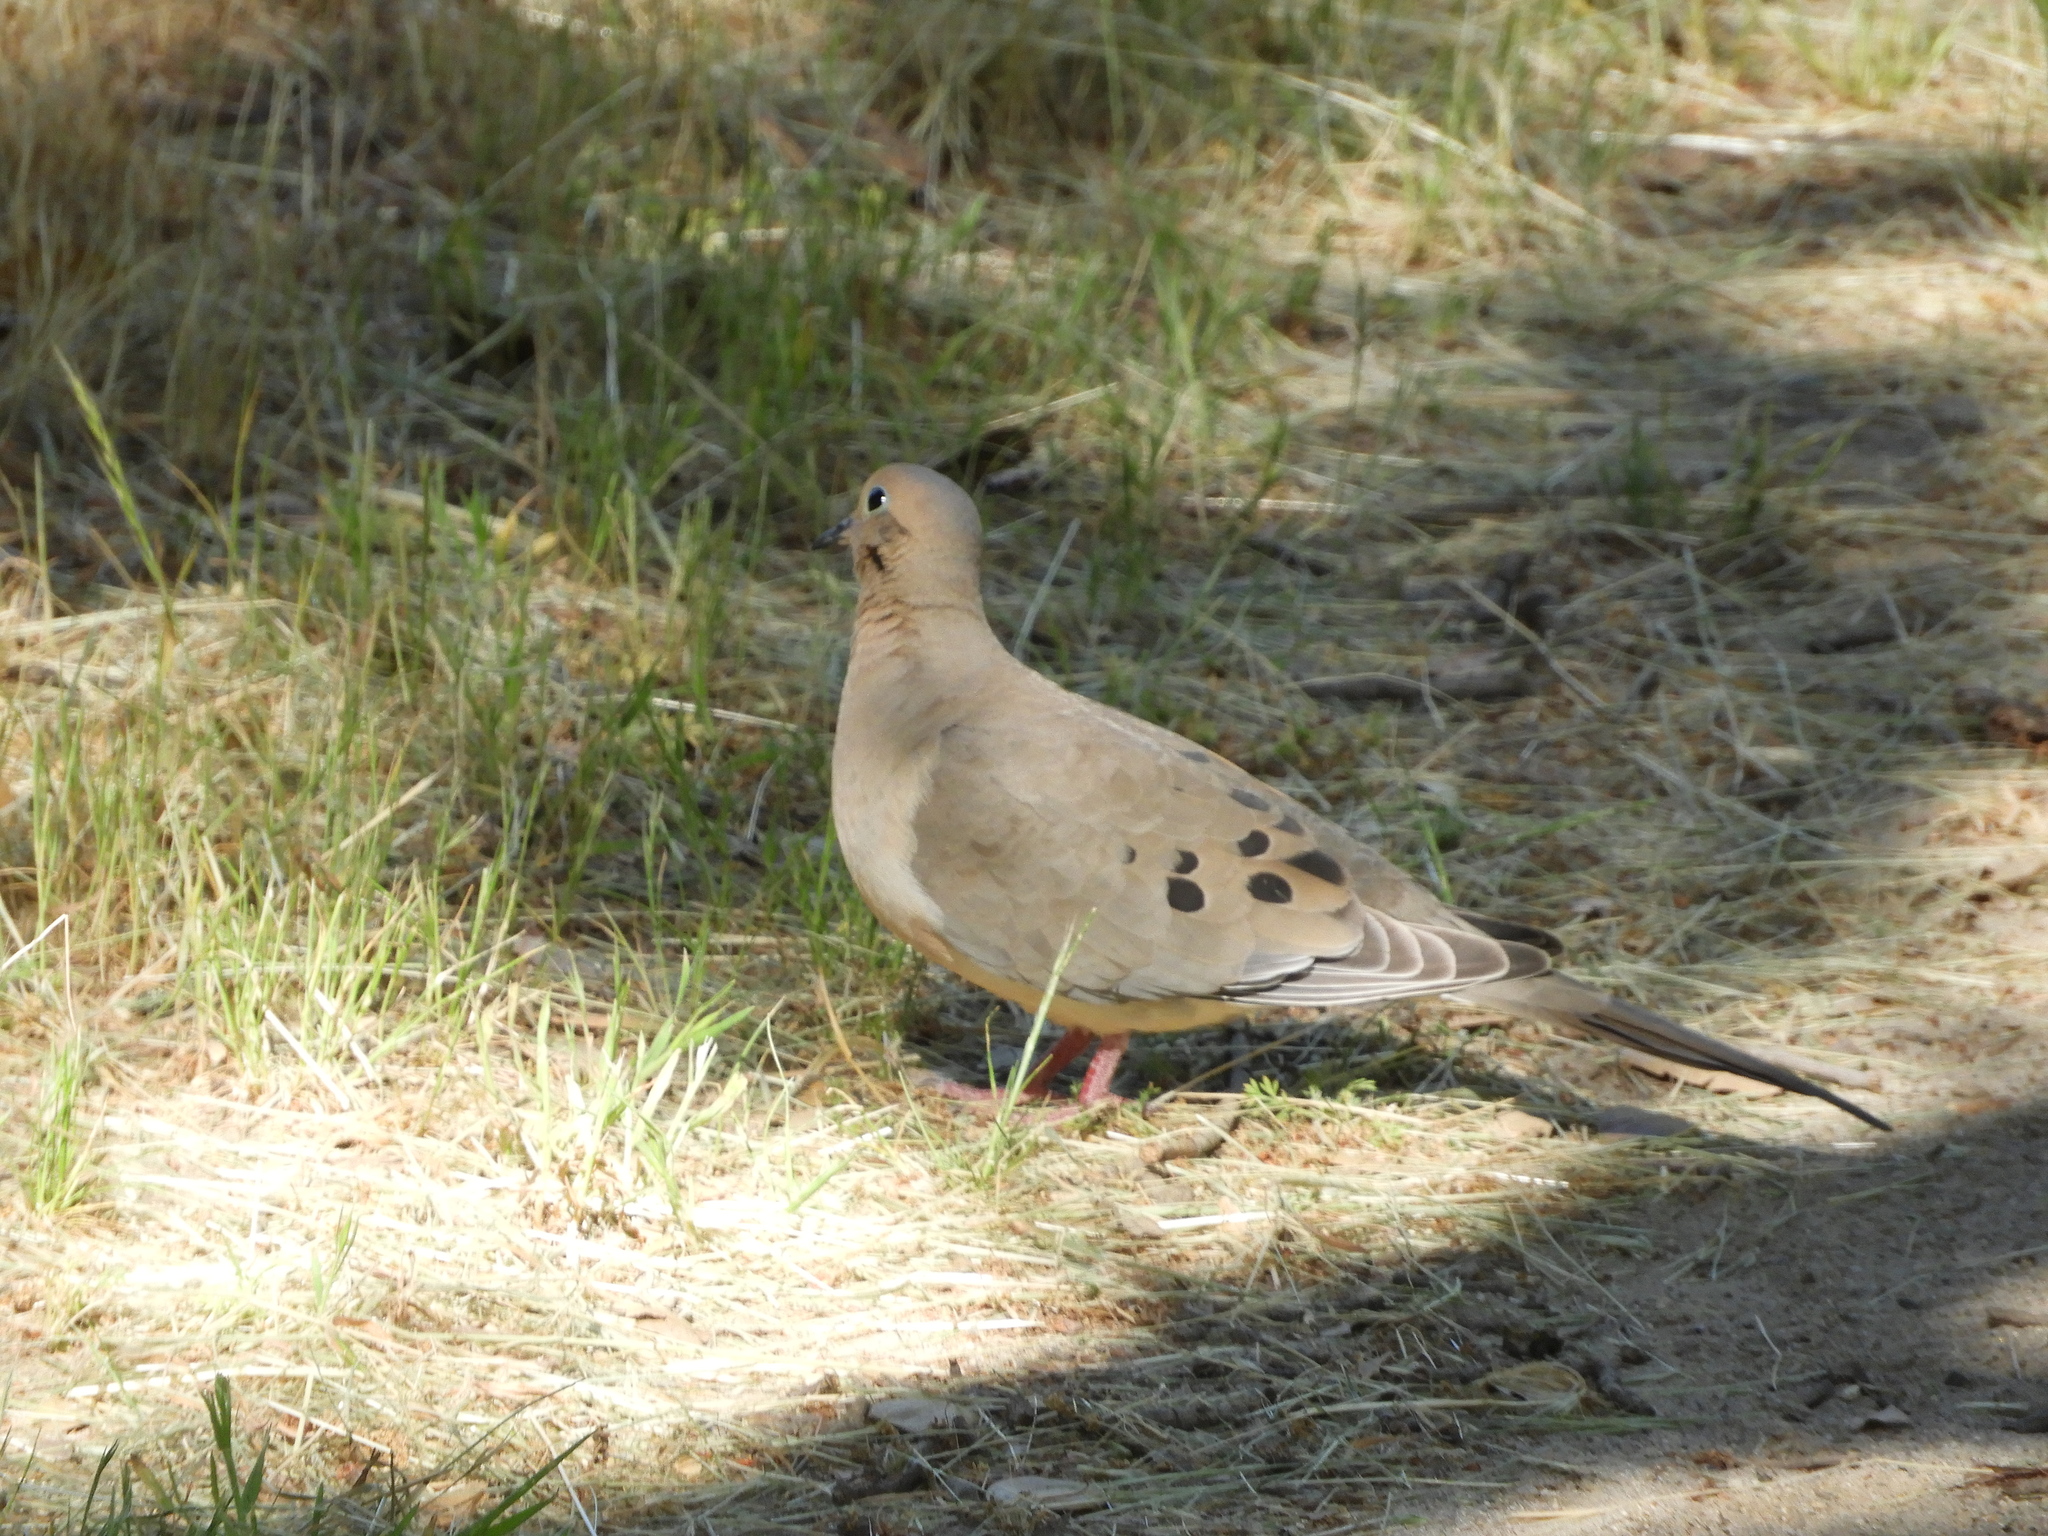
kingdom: Animalia
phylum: Chordata
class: Aves
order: Columbiformes
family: Columbidae
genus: Zenaida
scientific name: Zenaida macroura
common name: Mourning dove
